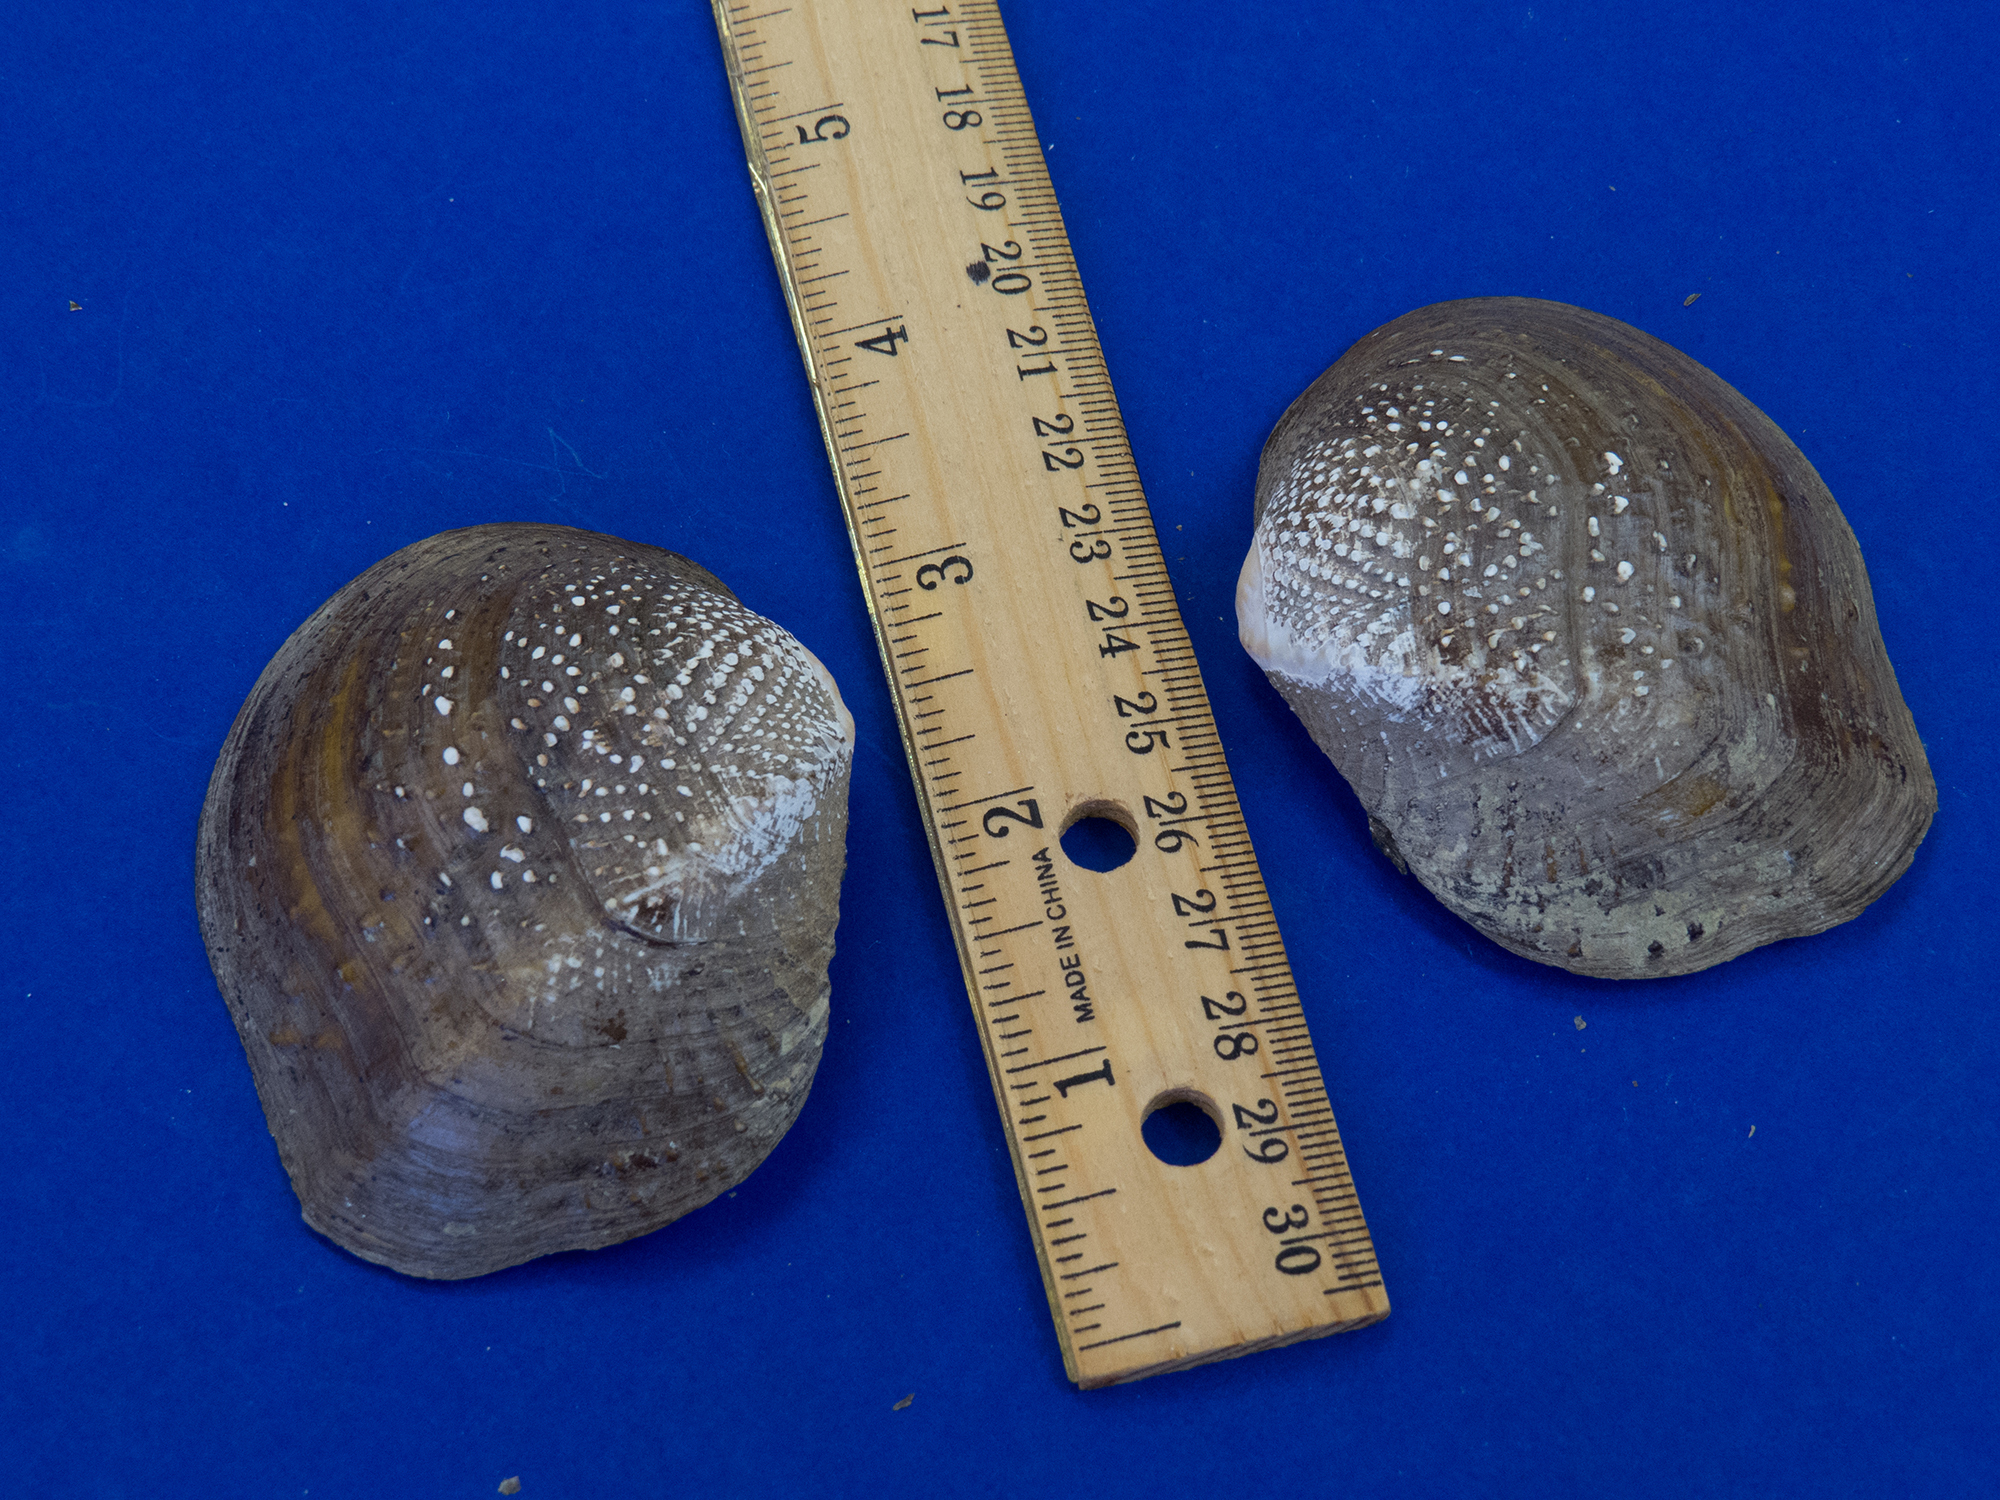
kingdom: Animalia
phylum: Mollusca
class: Bivalvia
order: Unionida
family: Unionidae
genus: Quadrula
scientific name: Quadrula quadrula
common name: Mapleleaf
